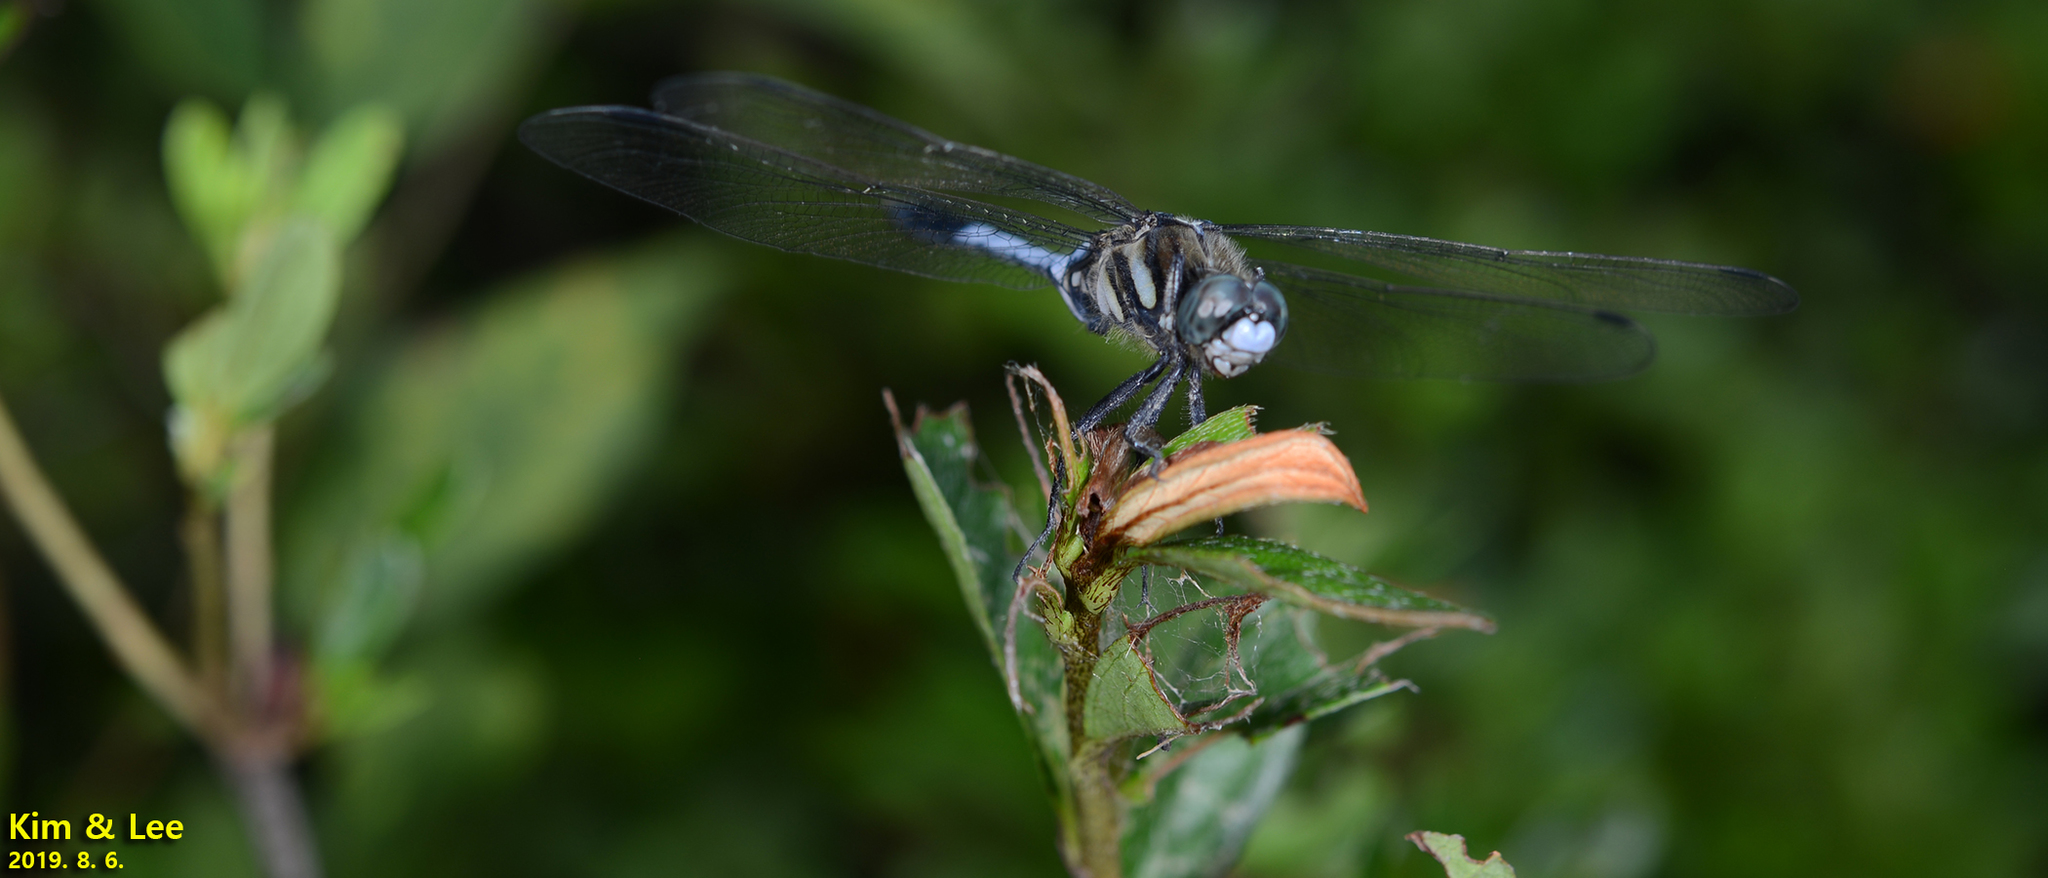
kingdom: Animalia
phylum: Arthropoda
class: Insecta
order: Odonata
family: Libellulidae
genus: Orthetrum
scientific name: Orthetrum albistylum
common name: White-tailed skimmer
